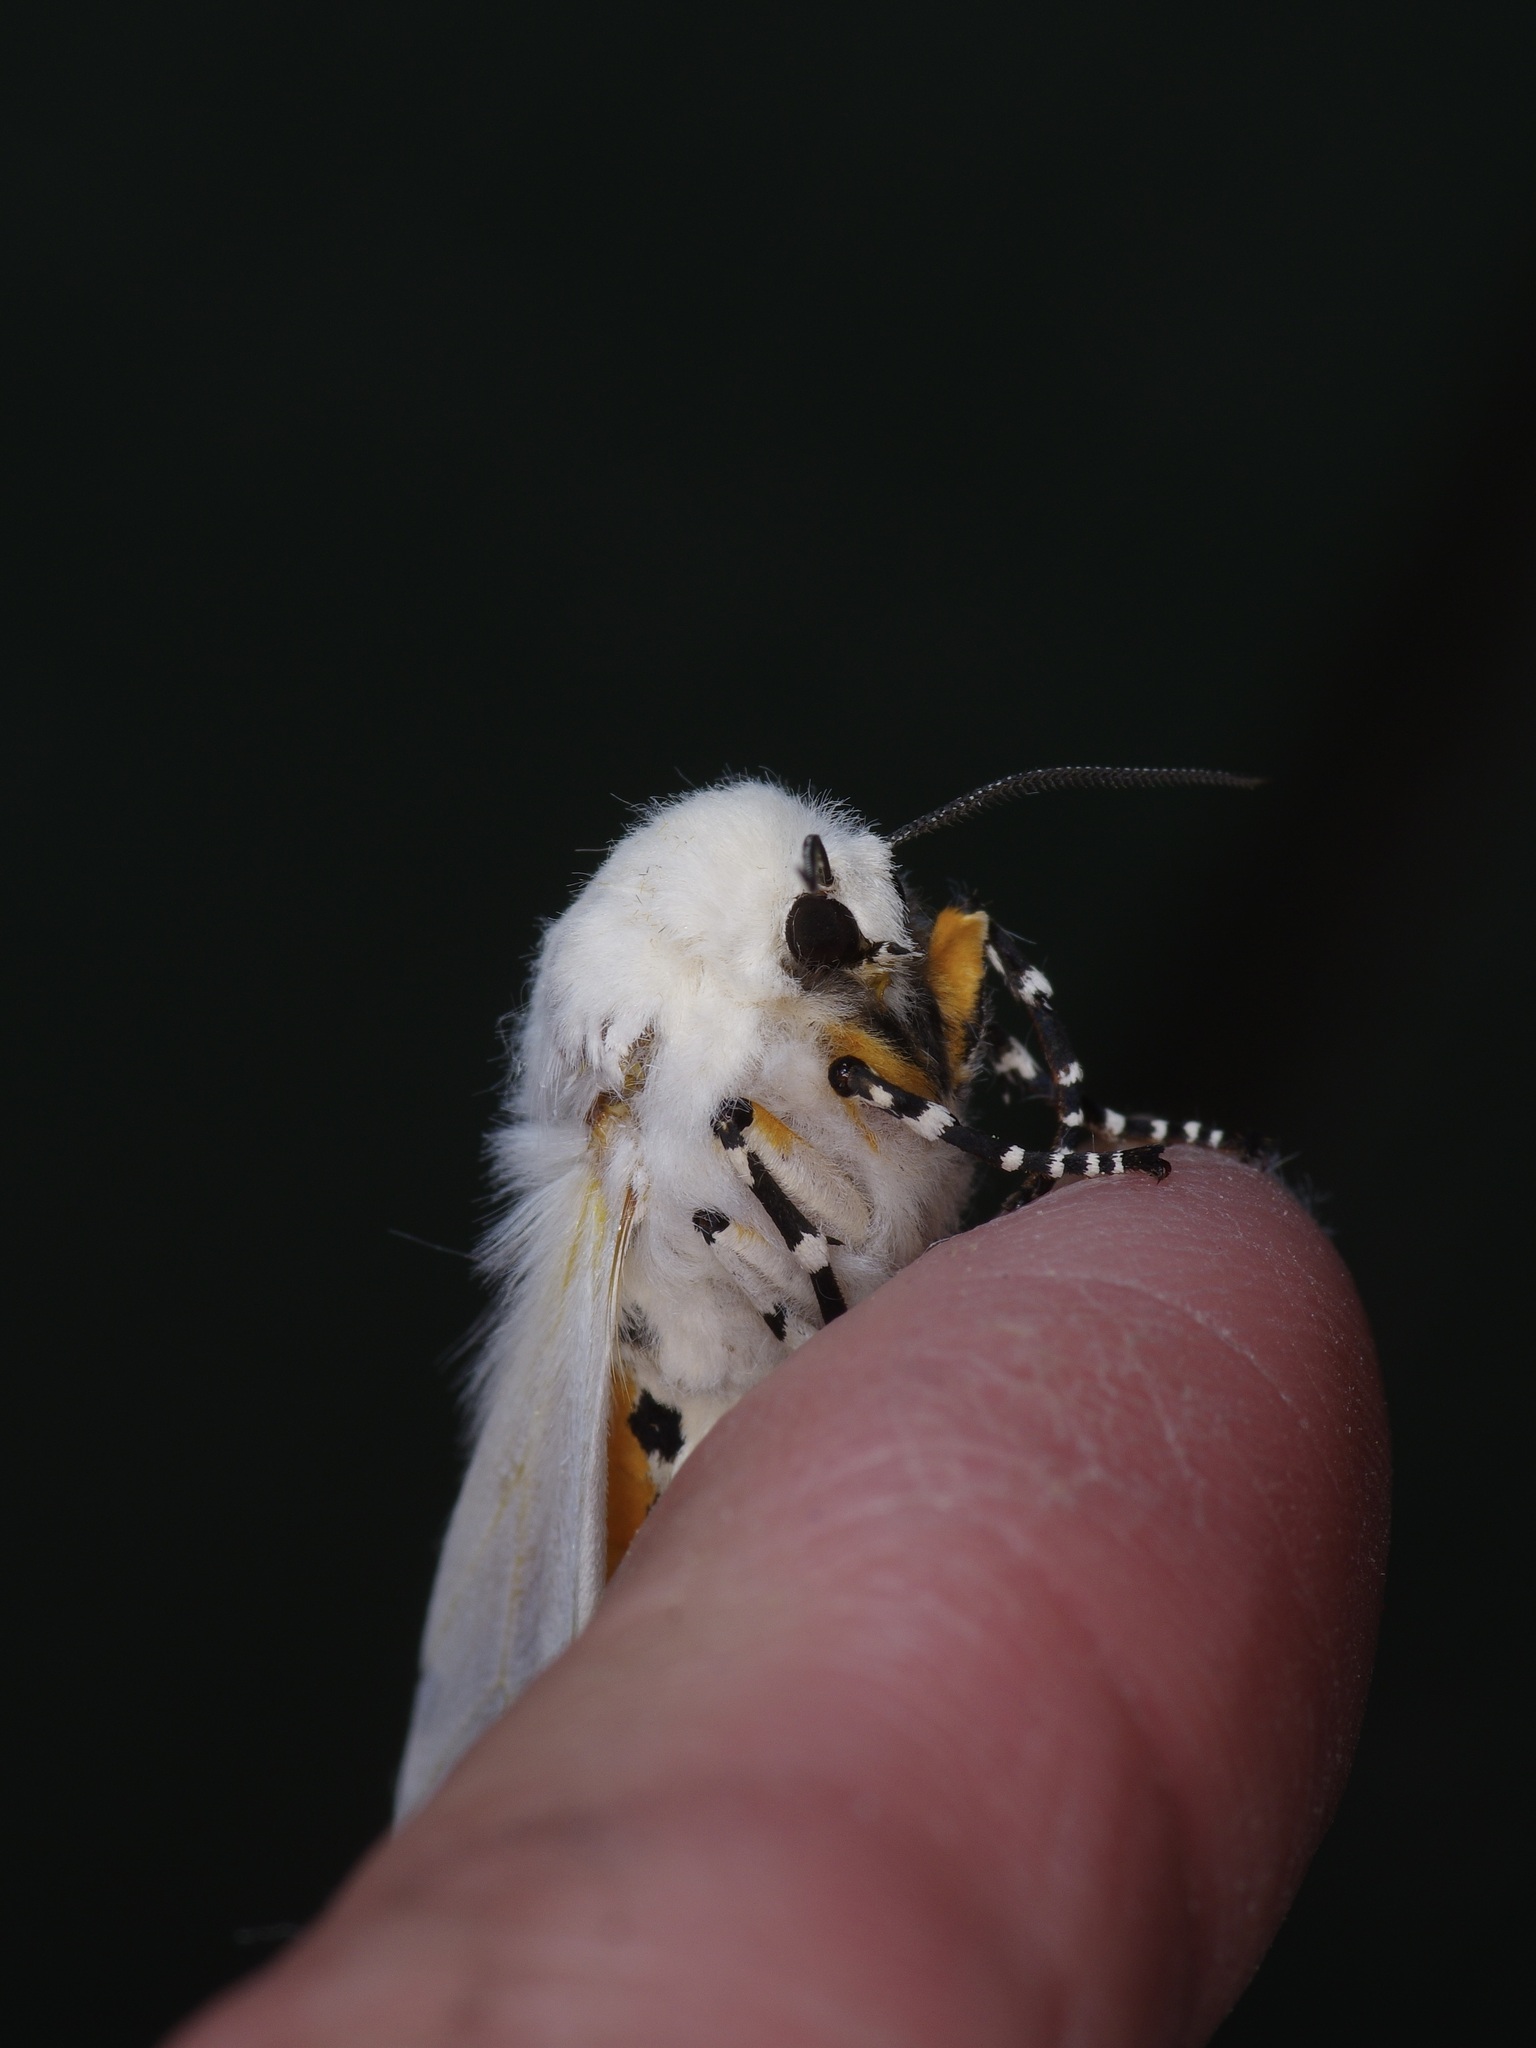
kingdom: Animalia
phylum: Arthropoda
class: Insecta
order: Lepidoptera
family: Erebidae
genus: Estigmene
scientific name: Estigmene acrea
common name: Salt marsh moth
